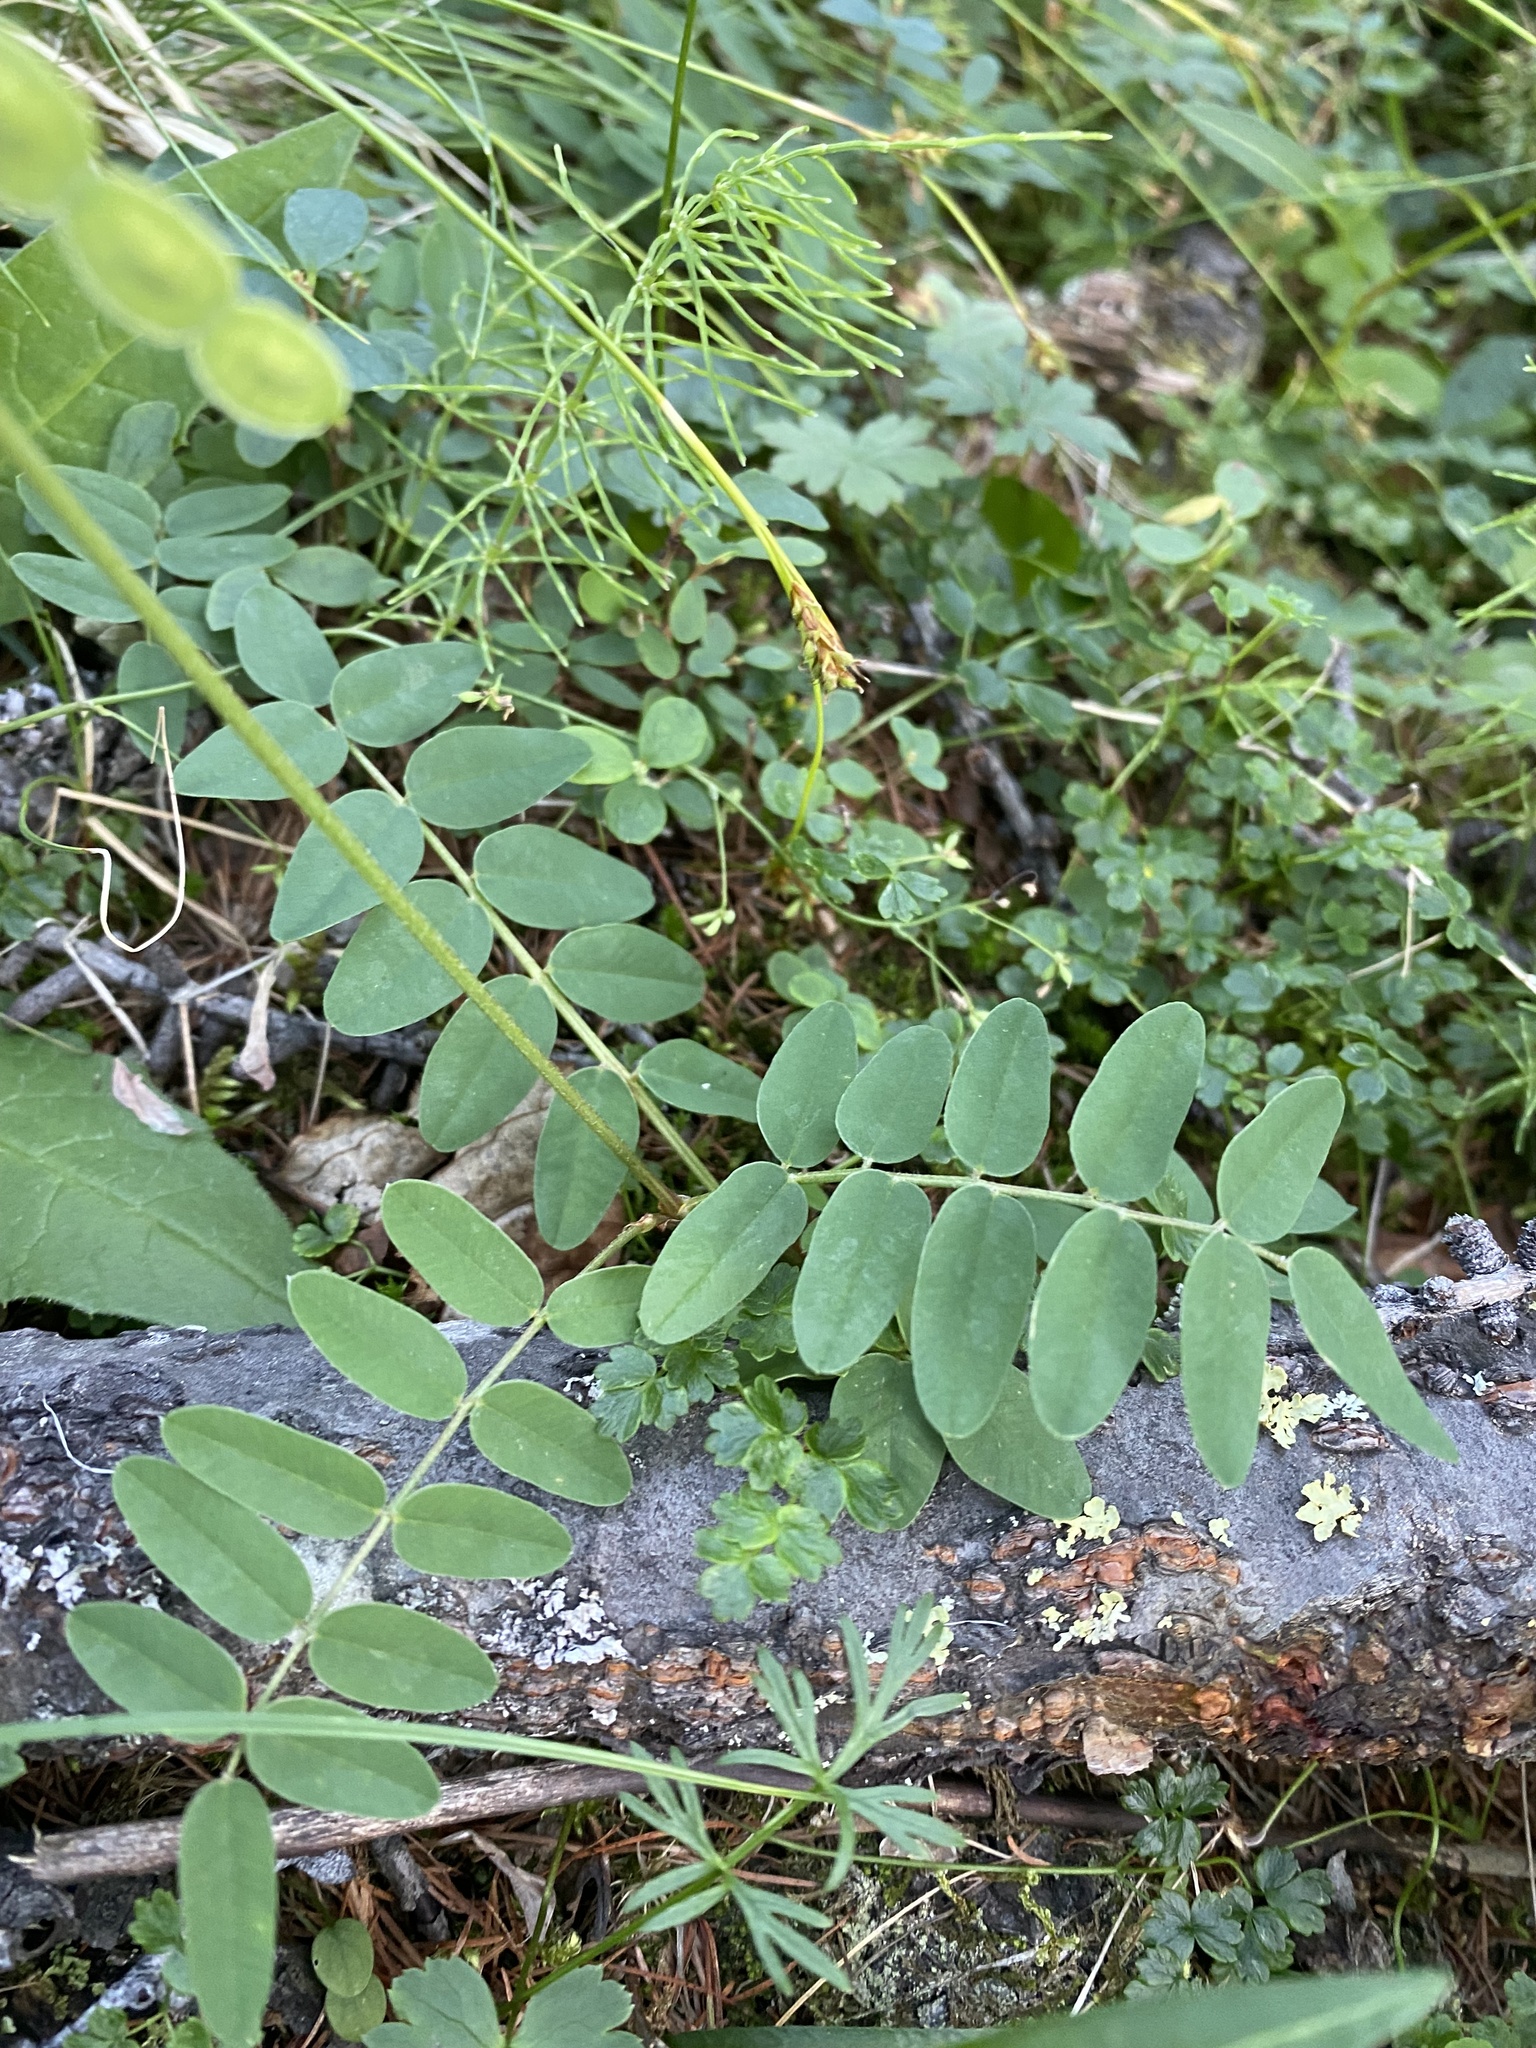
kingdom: Plantae
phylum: Tracheophyta
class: Magnoliopsida
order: Fabales
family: Fabaceae
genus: Hedysarum
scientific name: Hedysarum hedysaroides
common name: Alpine french-honeysuckle
